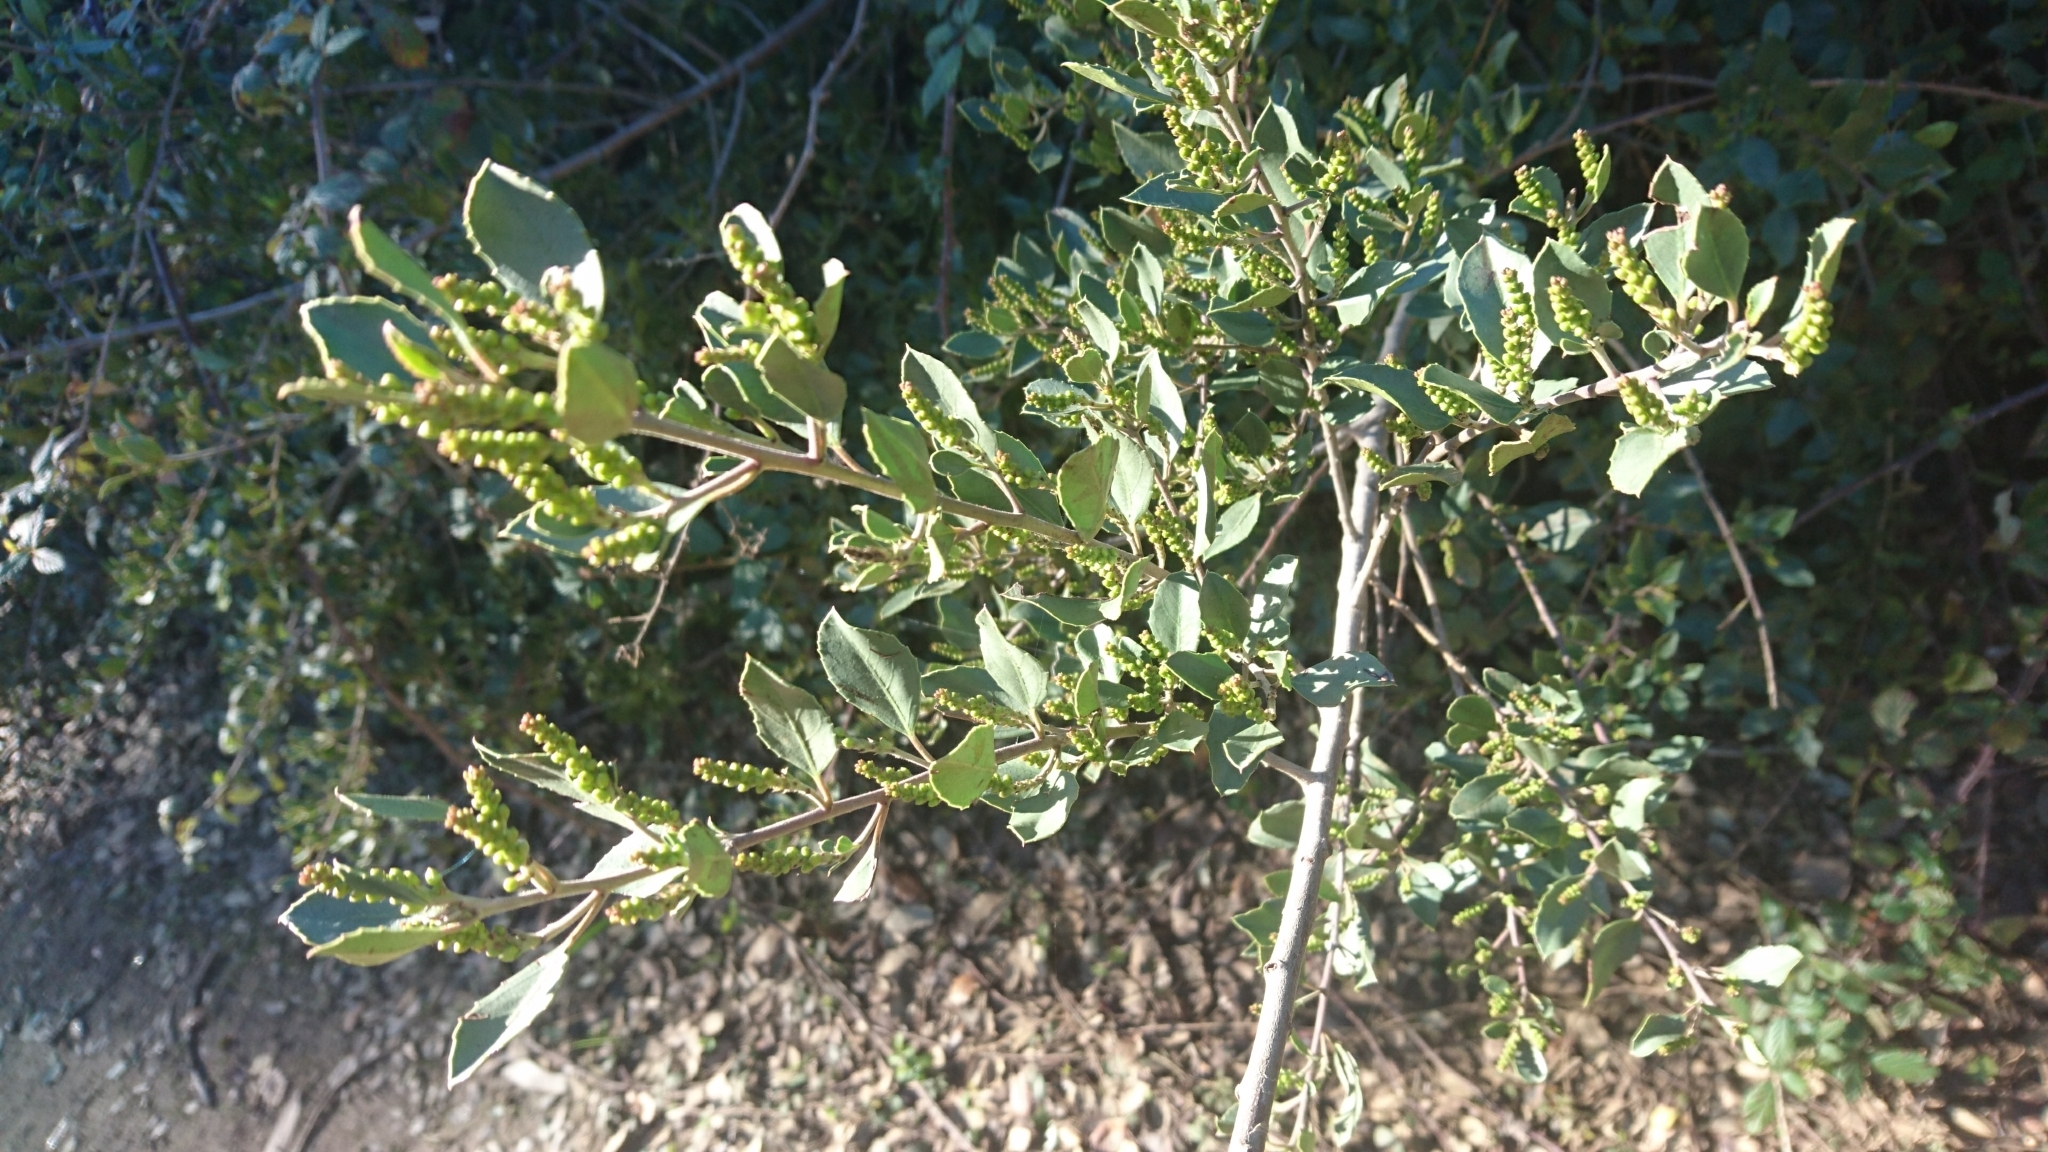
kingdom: Plantae
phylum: Tracheophyta
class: Magnoliopsida
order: Rosales
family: Rhamnaceae
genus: Rhamnus
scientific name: Rhamnus alaternus
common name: Mediterranean buckthorn
